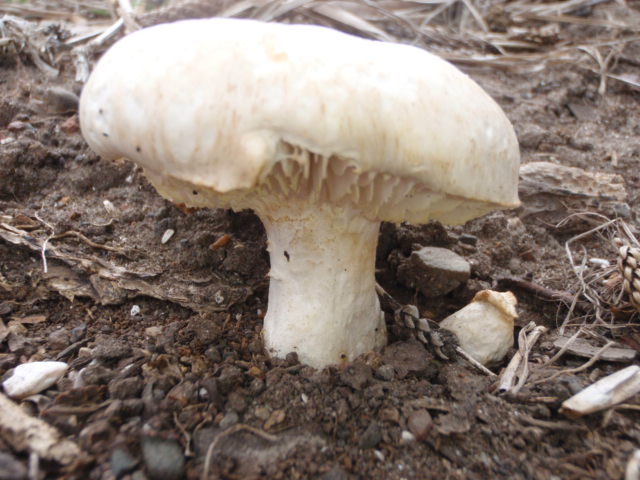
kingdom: Fungi
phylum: Basidiomycota
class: Agaricomycetes
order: Gloeophyllales
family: Gloeophyllaceae
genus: Neolentinus
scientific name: Neolentinus lepideus
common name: Scaly sawgill
